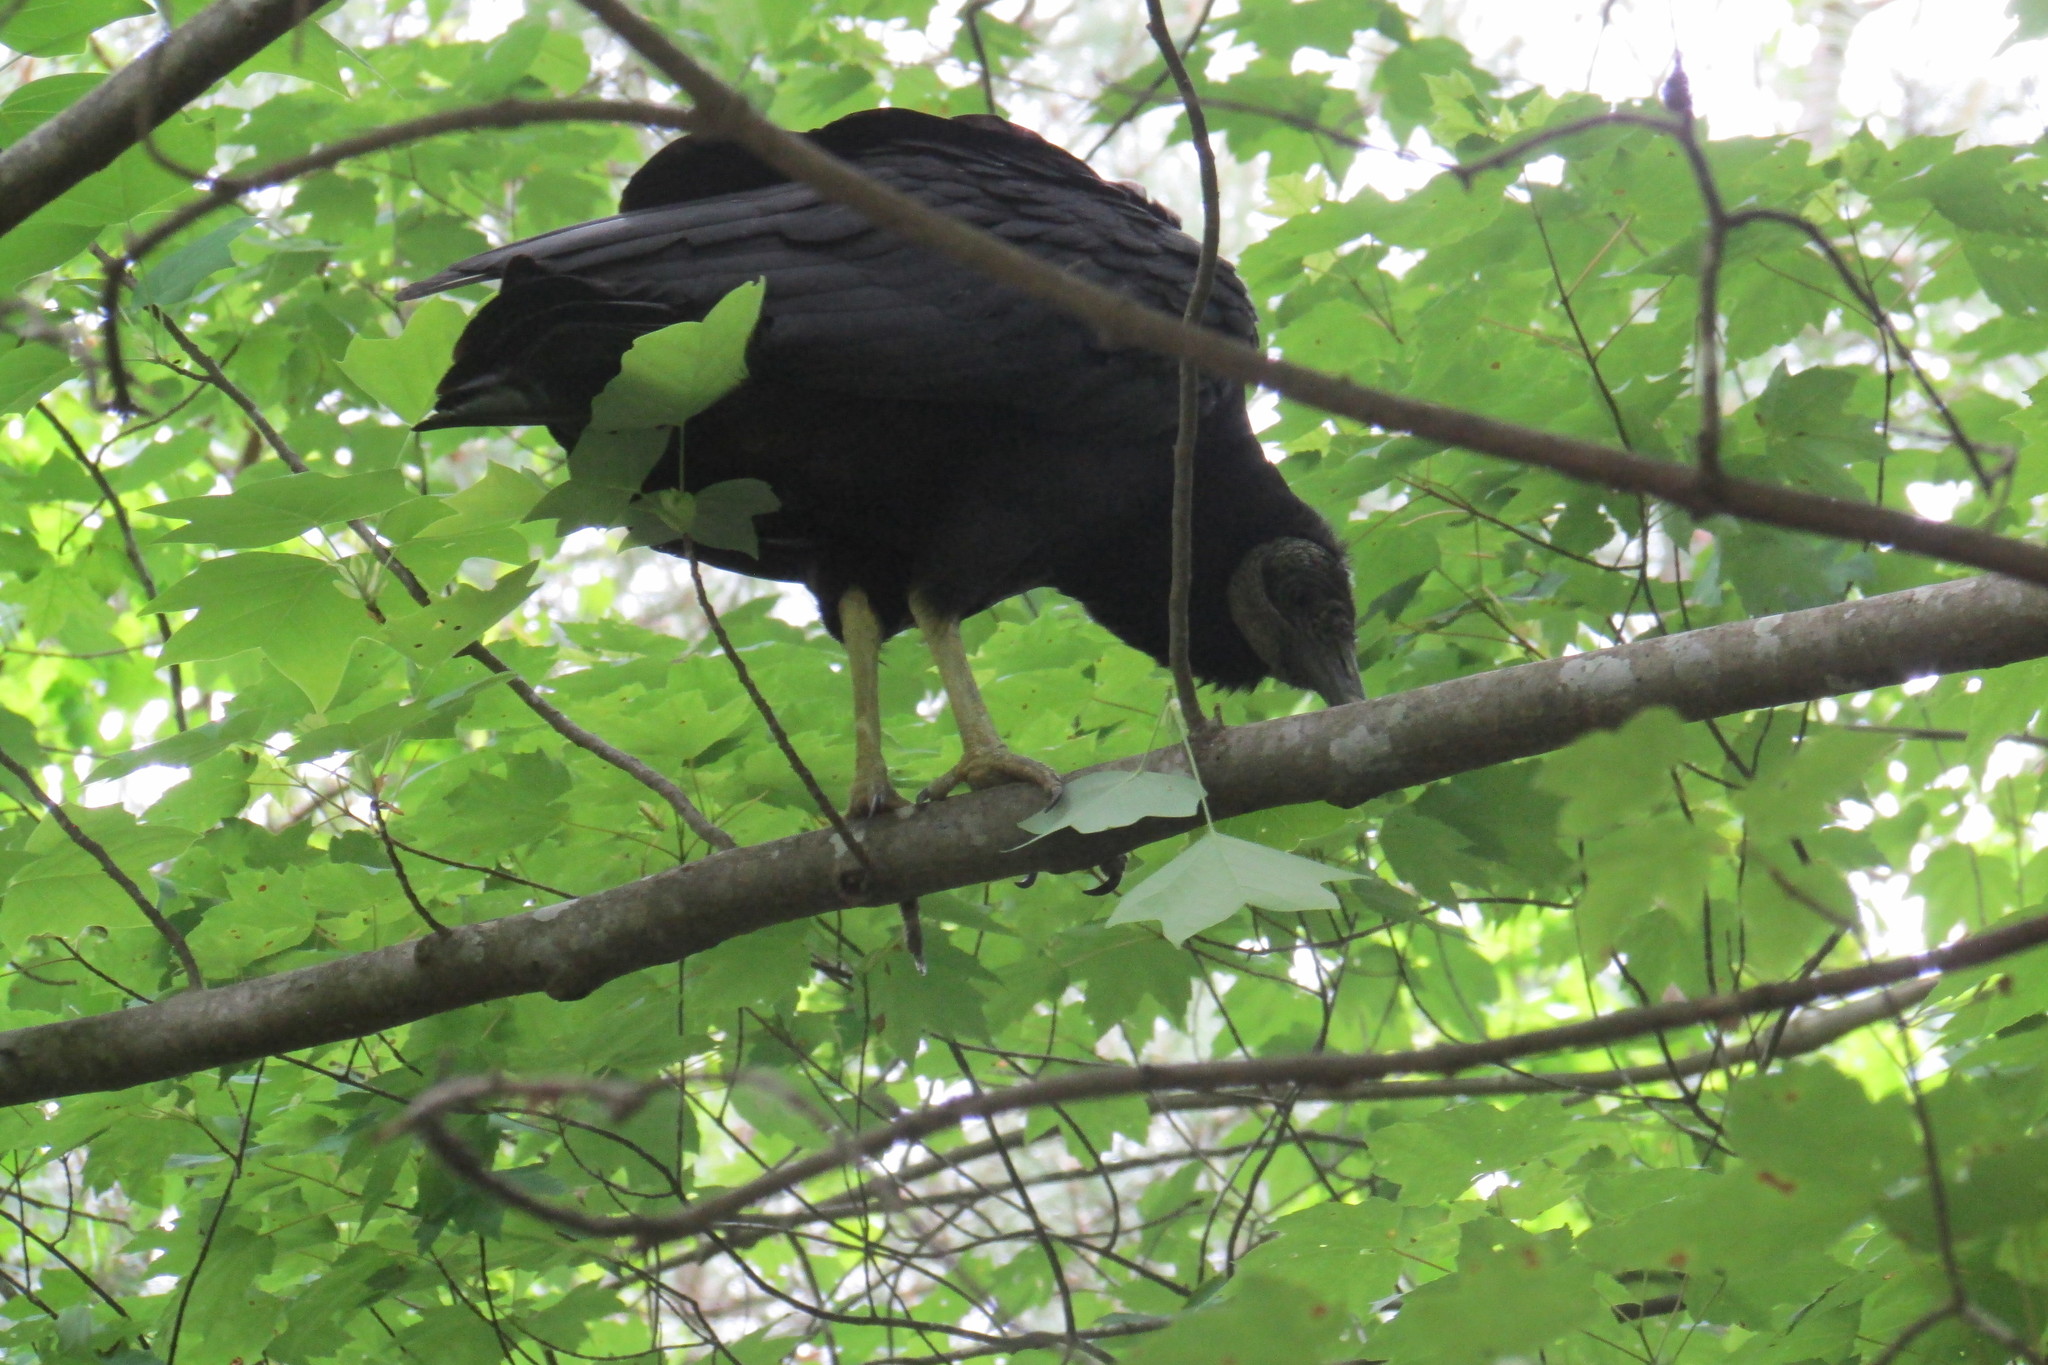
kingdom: Animalia
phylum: Chordata
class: Aves
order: Accipitriformes
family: Cathartidae
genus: Coragyps
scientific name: Coragyps atratus
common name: Black vulture
